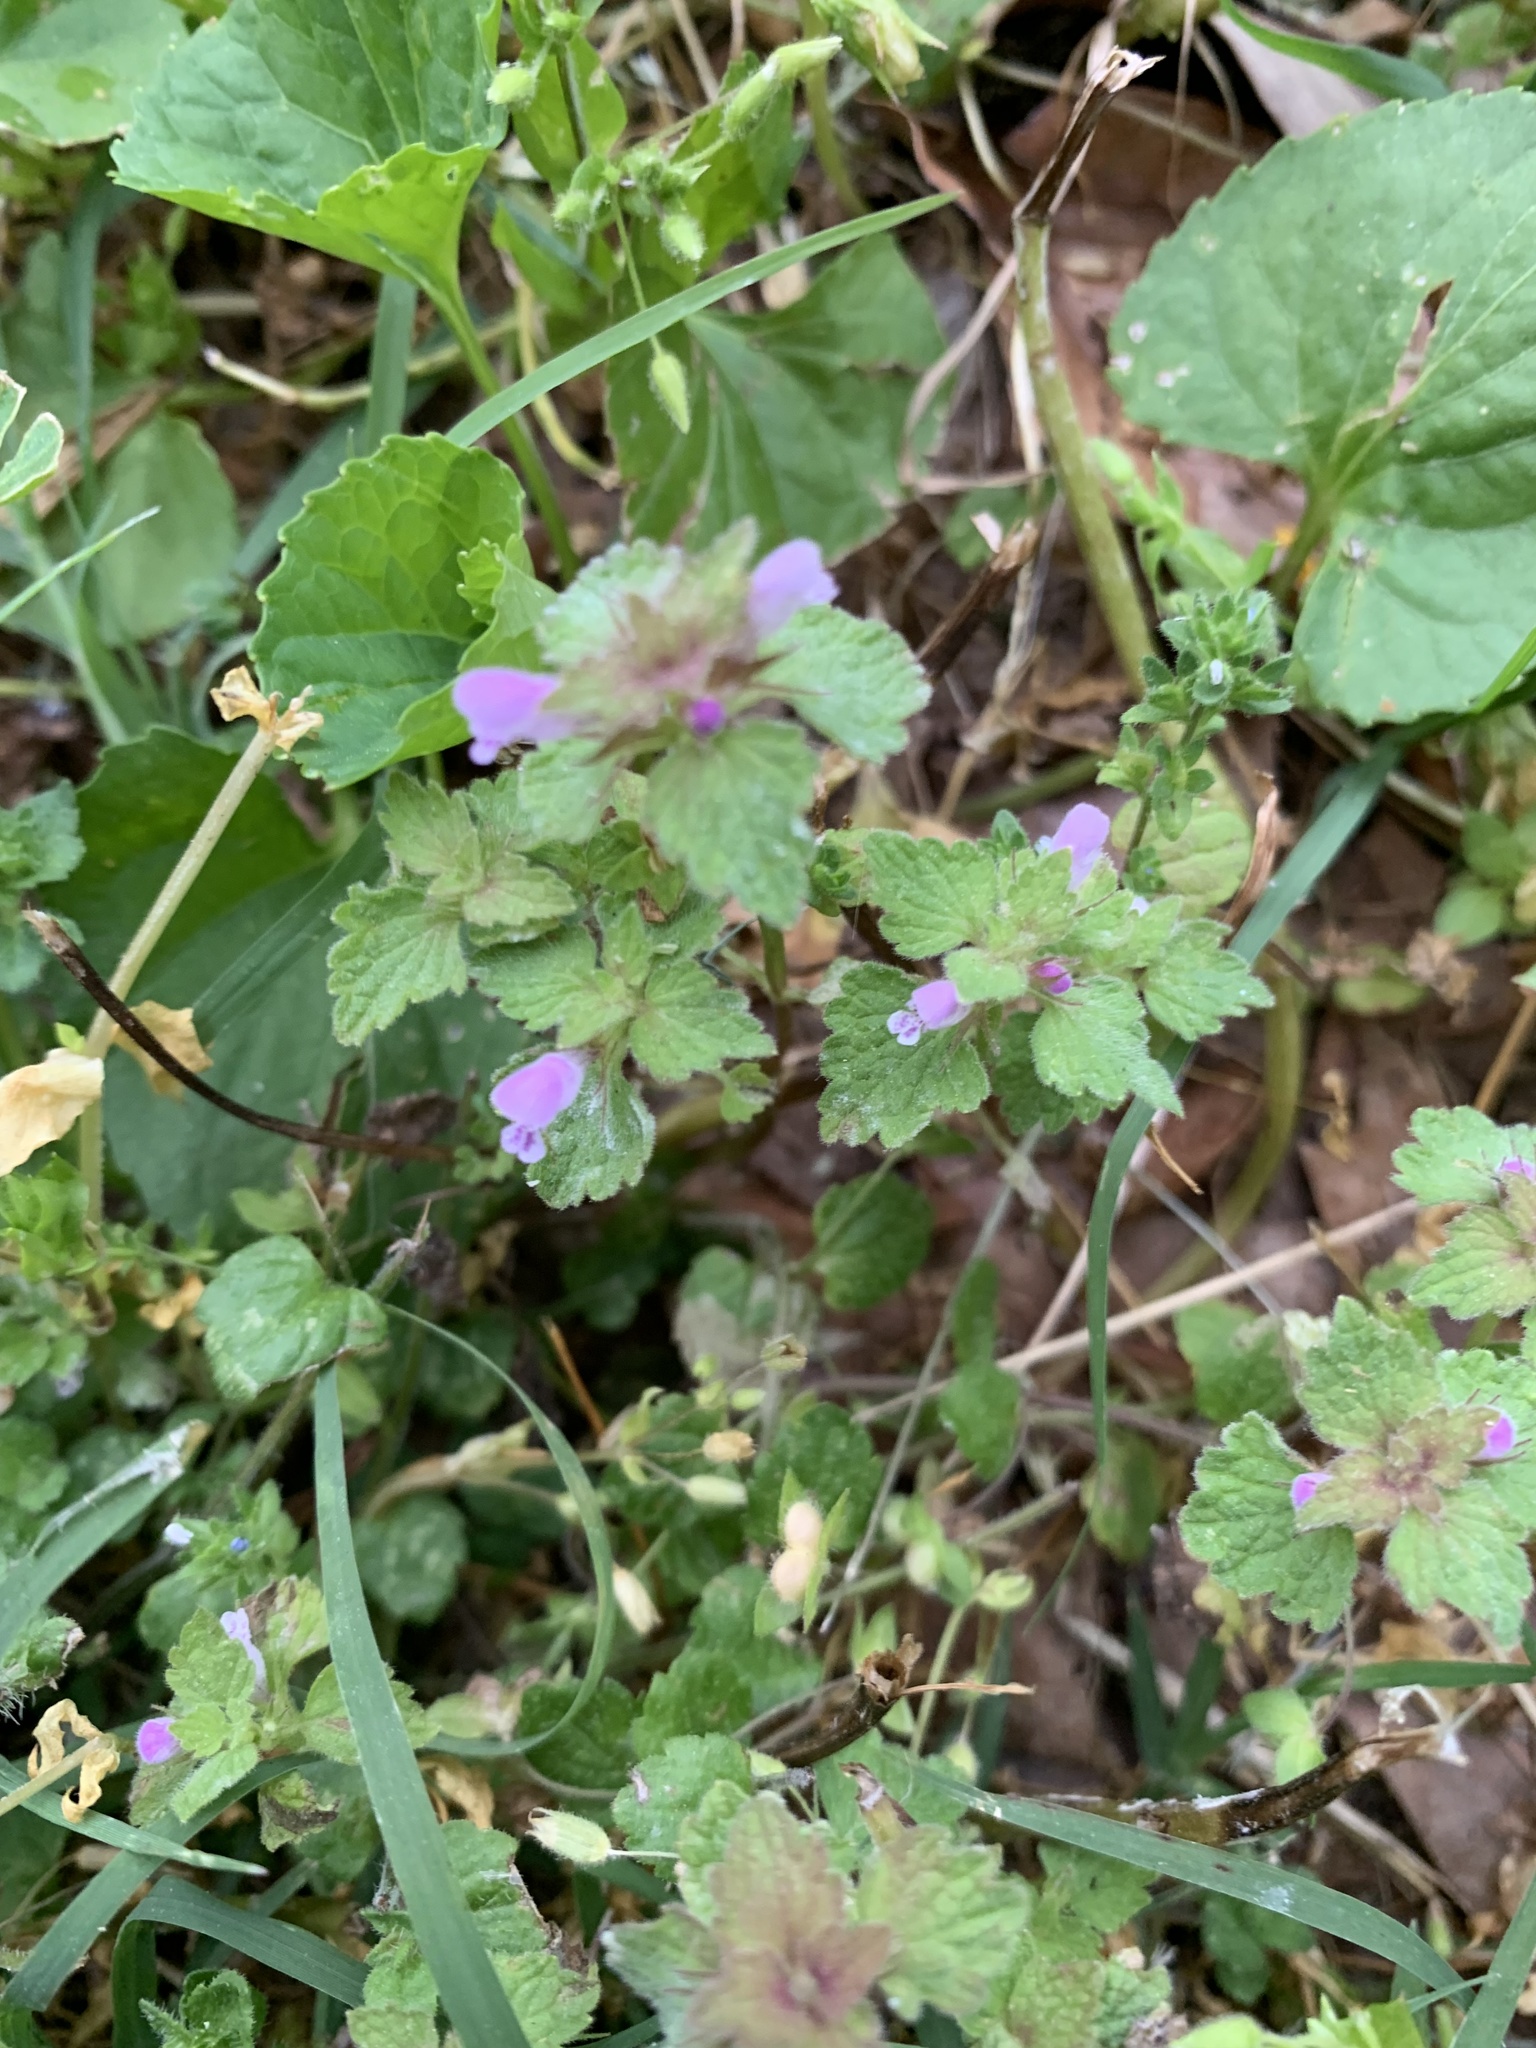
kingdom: Plantae
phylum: Tracheophyta
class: Magnoliopsida
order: Lamiales
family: Lamiaceae
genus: Lamium
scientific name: Lamium purpureum
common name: Red dead-nettle
